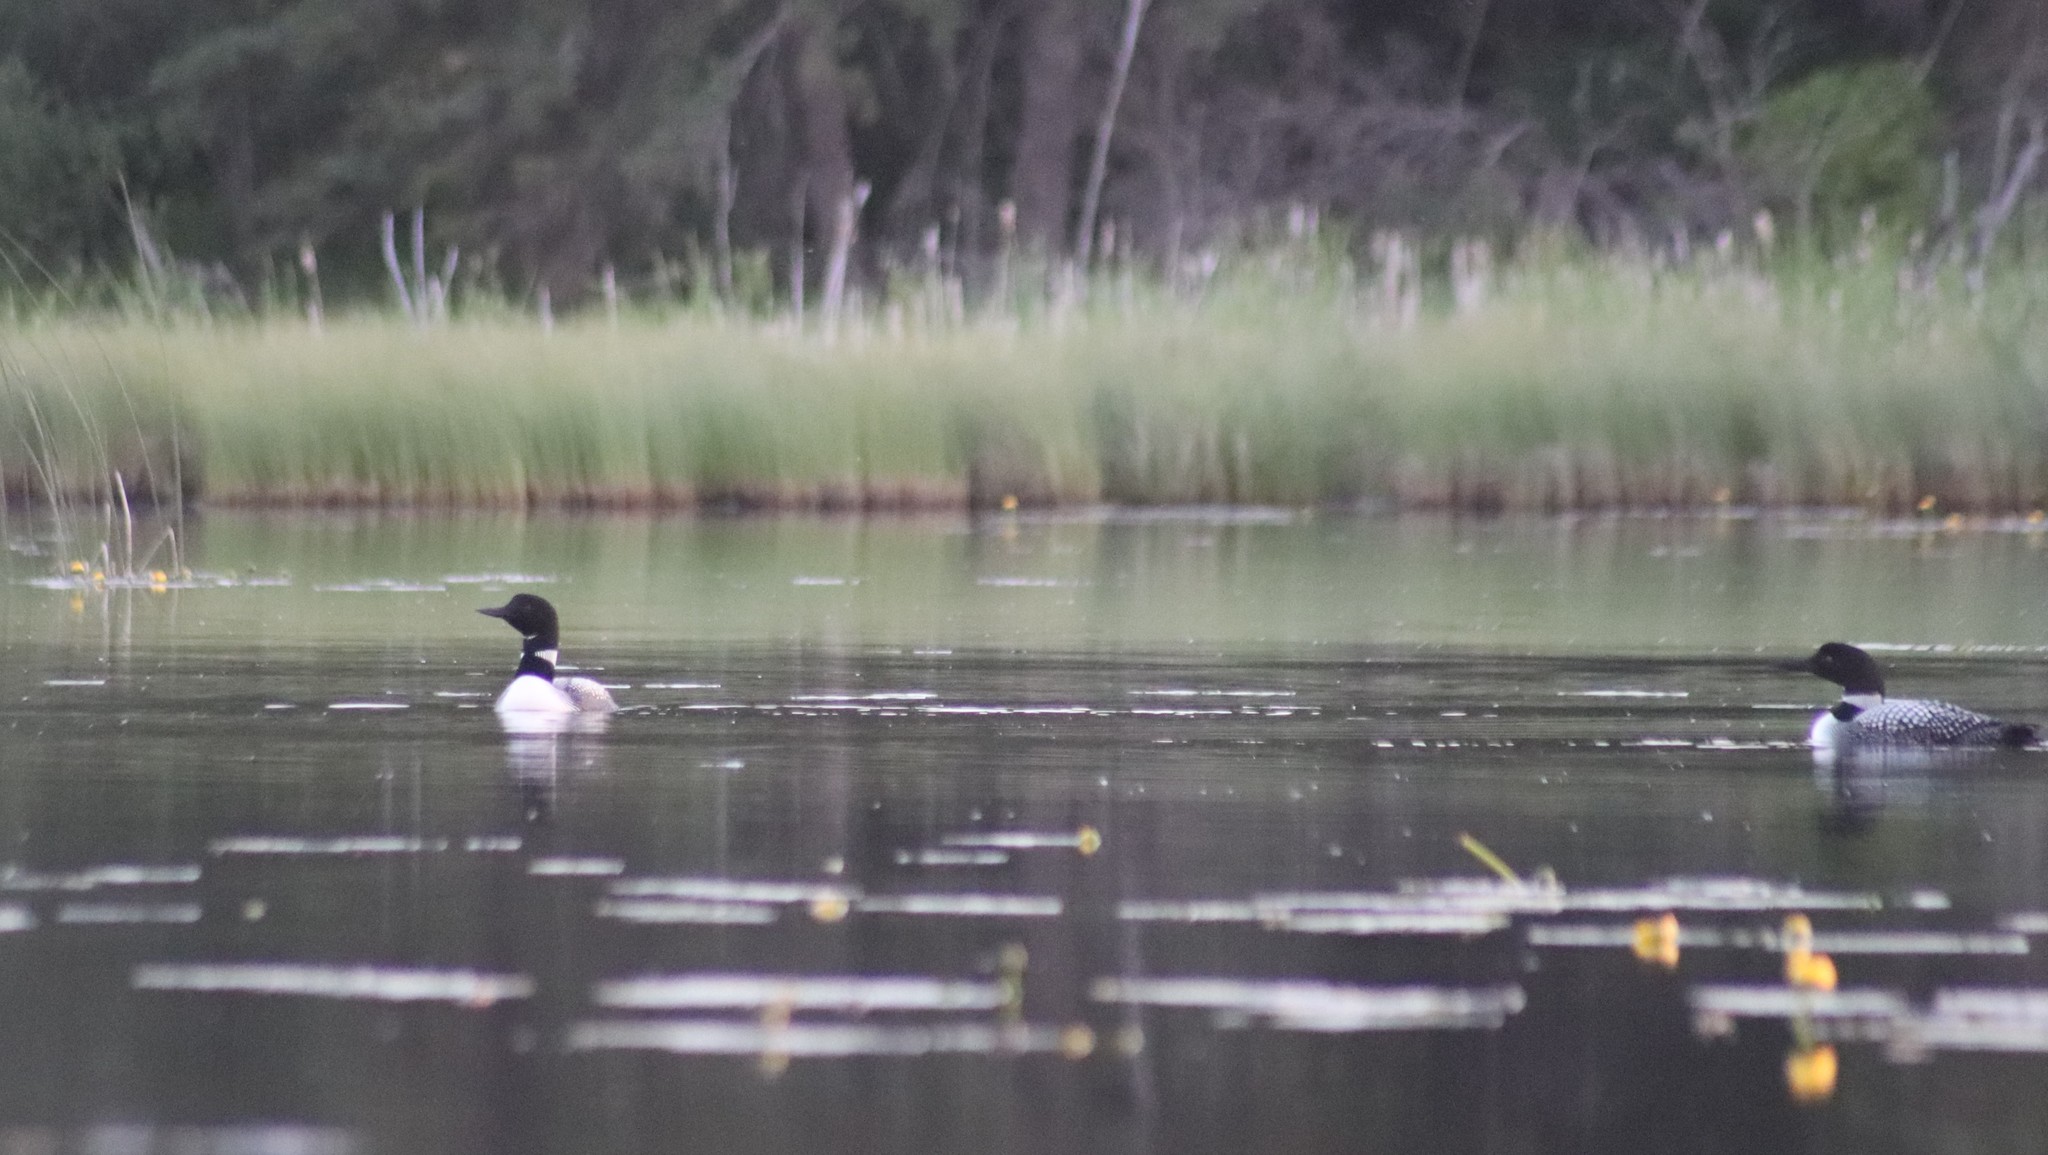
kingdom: Animalia
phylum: Chordata
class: Aves
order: Gaviiformes
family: Gaviidae
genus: Gavia
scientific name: Gavia immer
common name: Common loon
